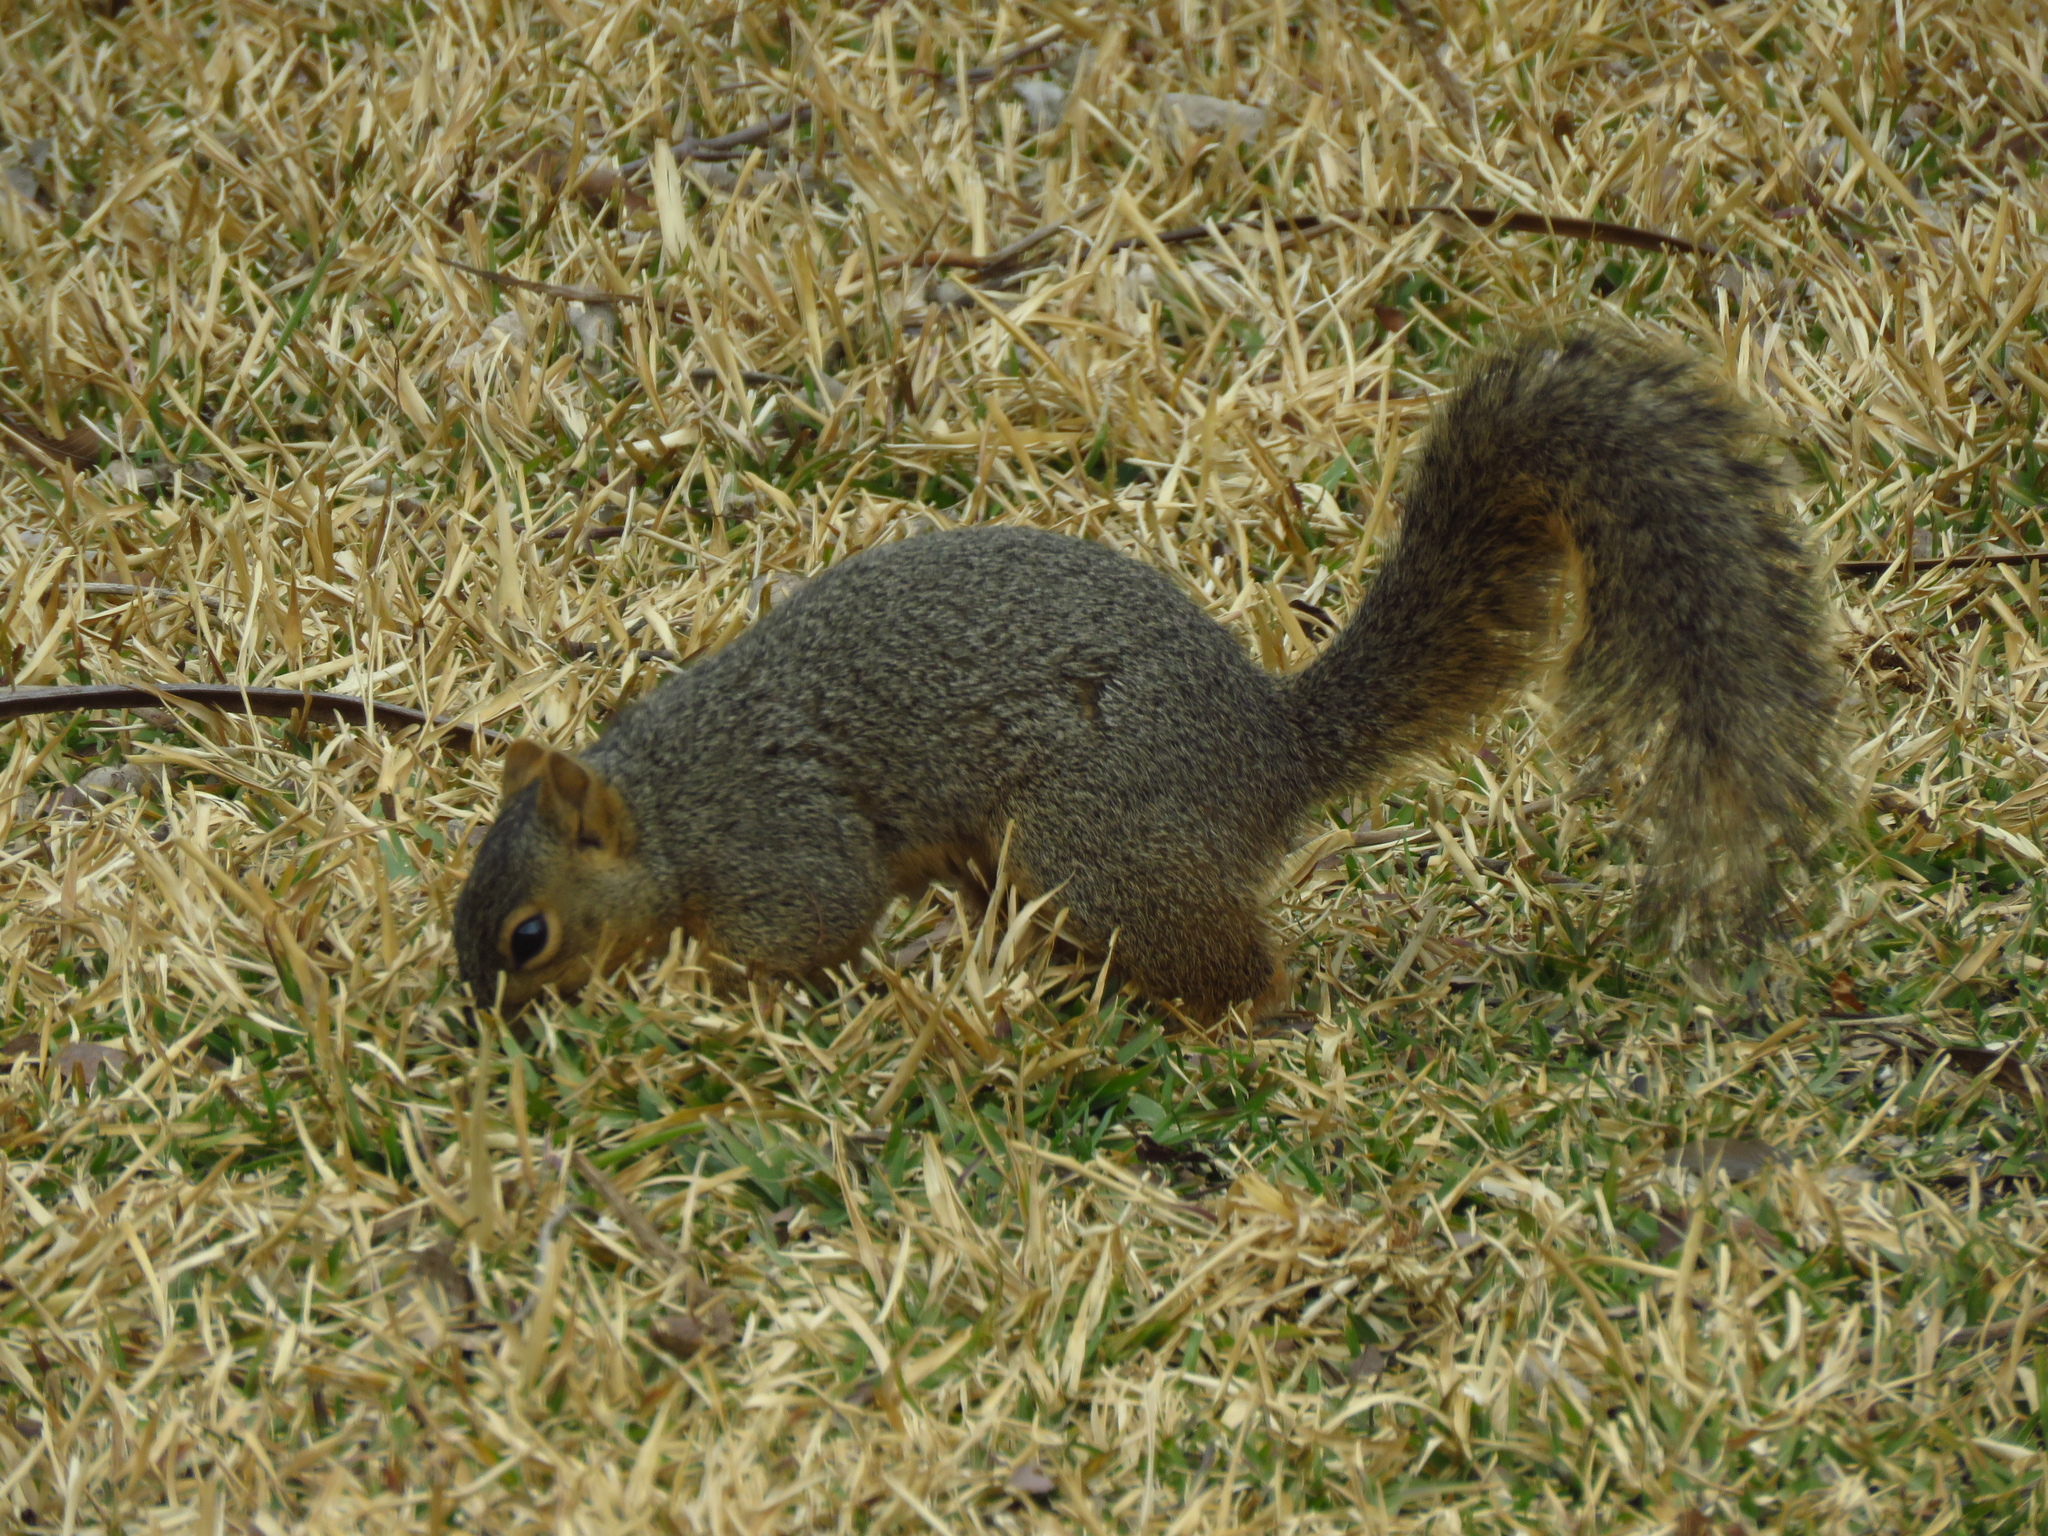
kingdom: Animalia
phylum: Chordata
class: Mammalia
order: Rodentia
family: Sciuridae
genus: Sciurus
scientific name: Sciurus niger
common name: Fox squirrel
